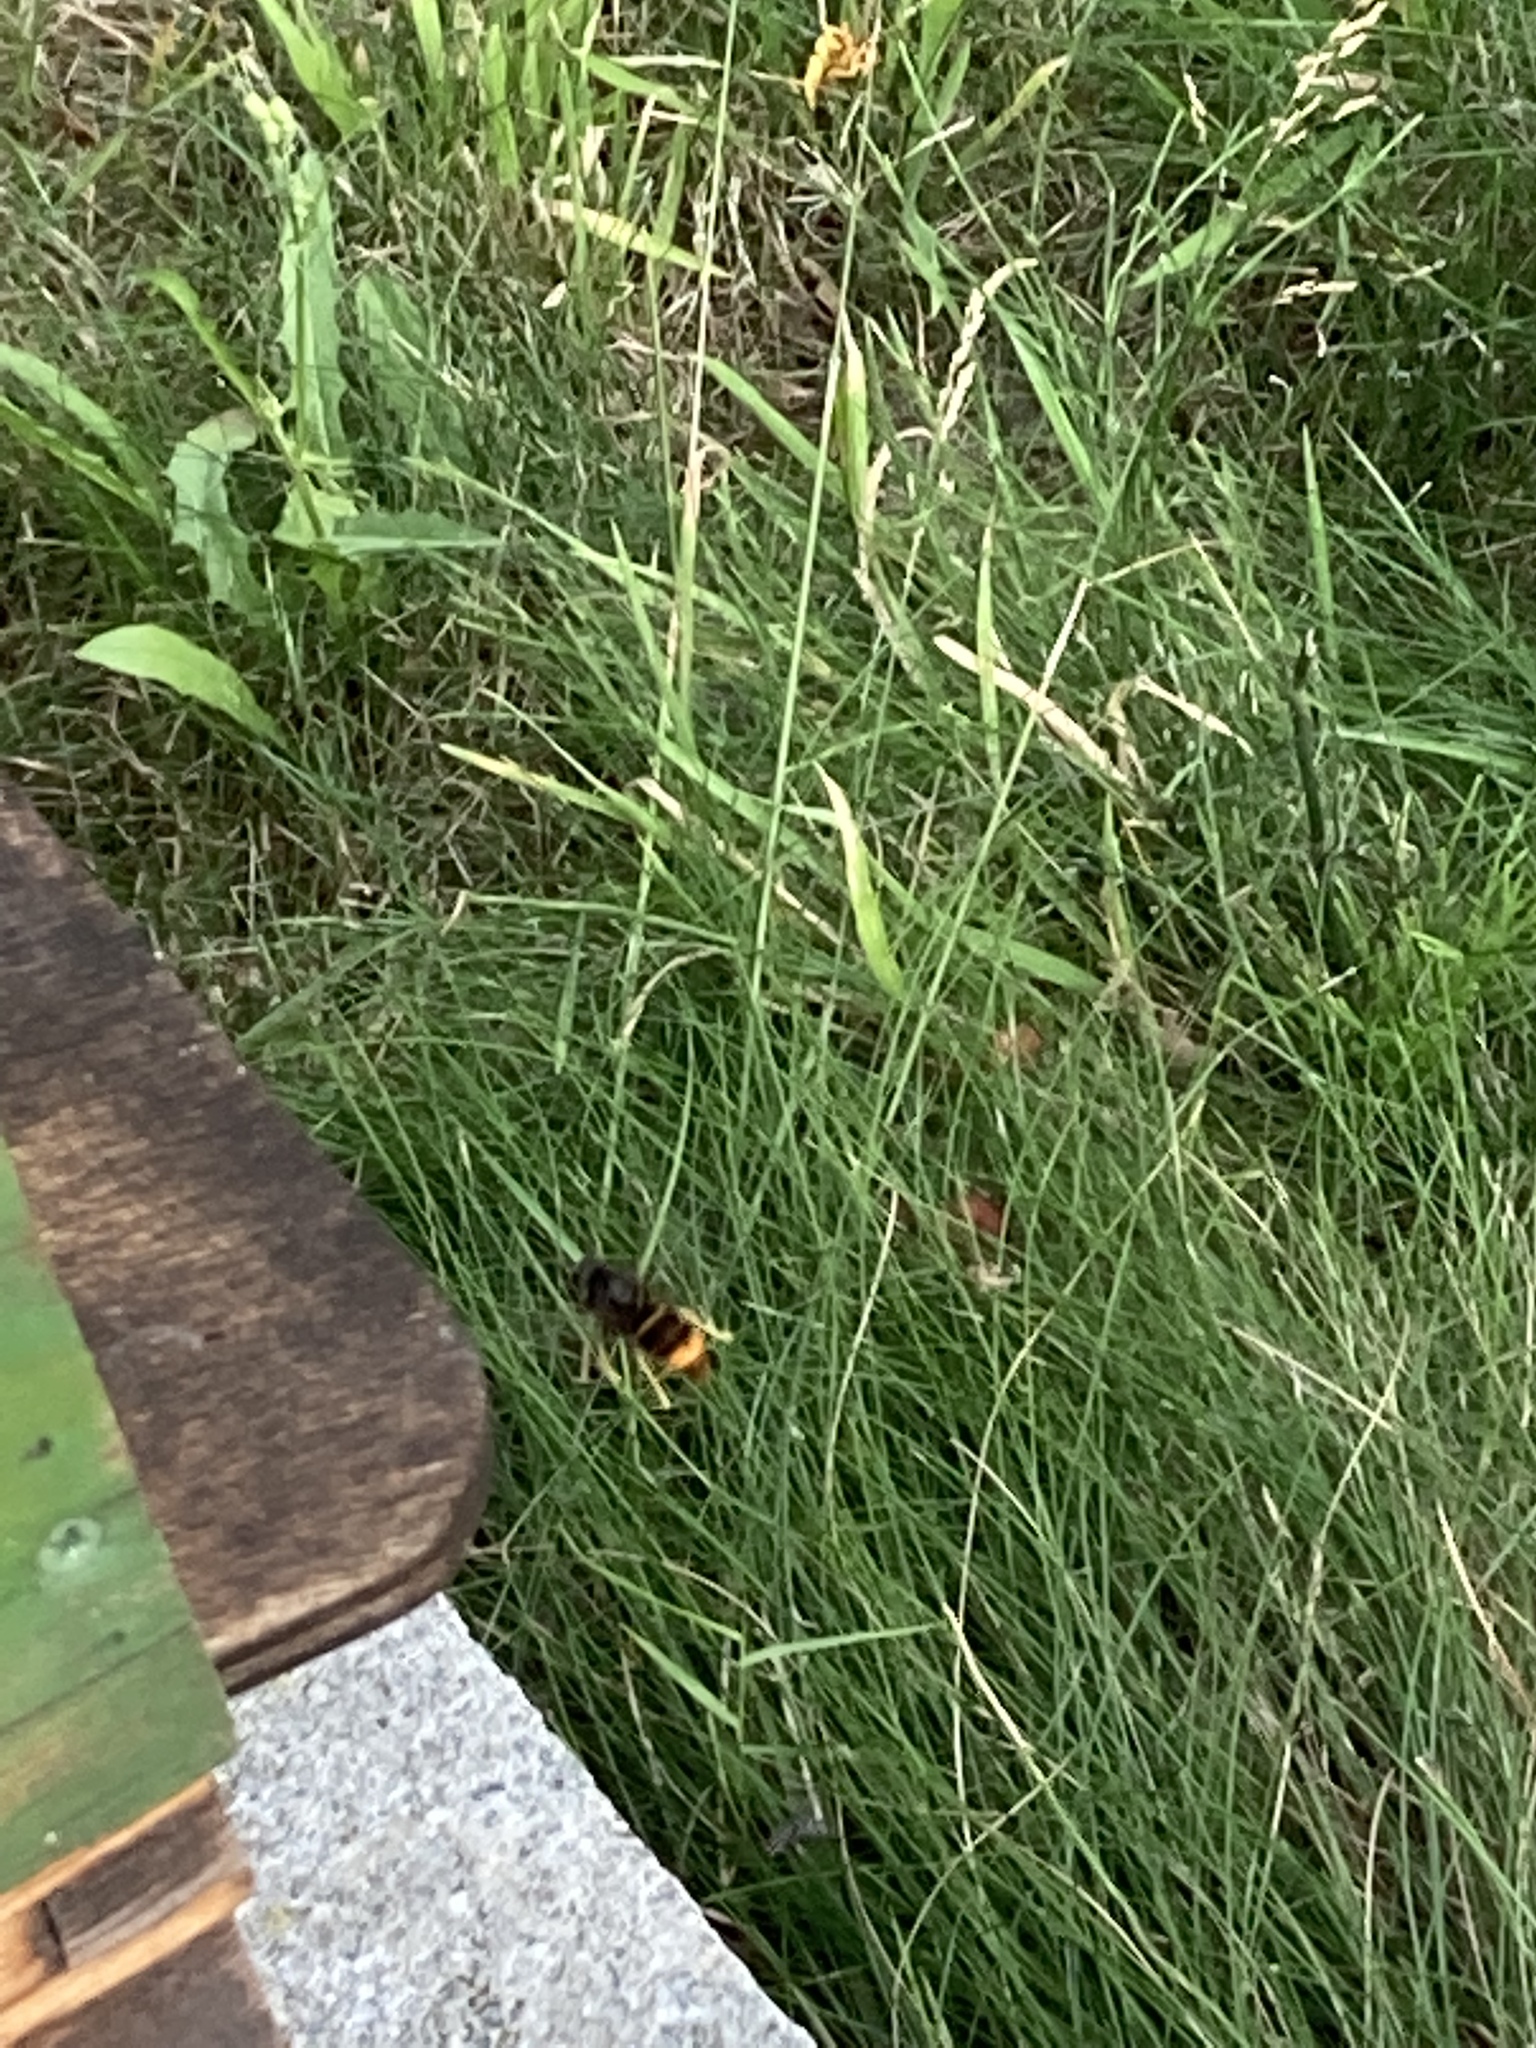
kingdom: Animalia
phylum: Arthropoda
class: Insecta
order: Hymenoptera
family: Vespidae
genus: Vespa
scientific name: Vespa velutina
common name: Asian hornet
